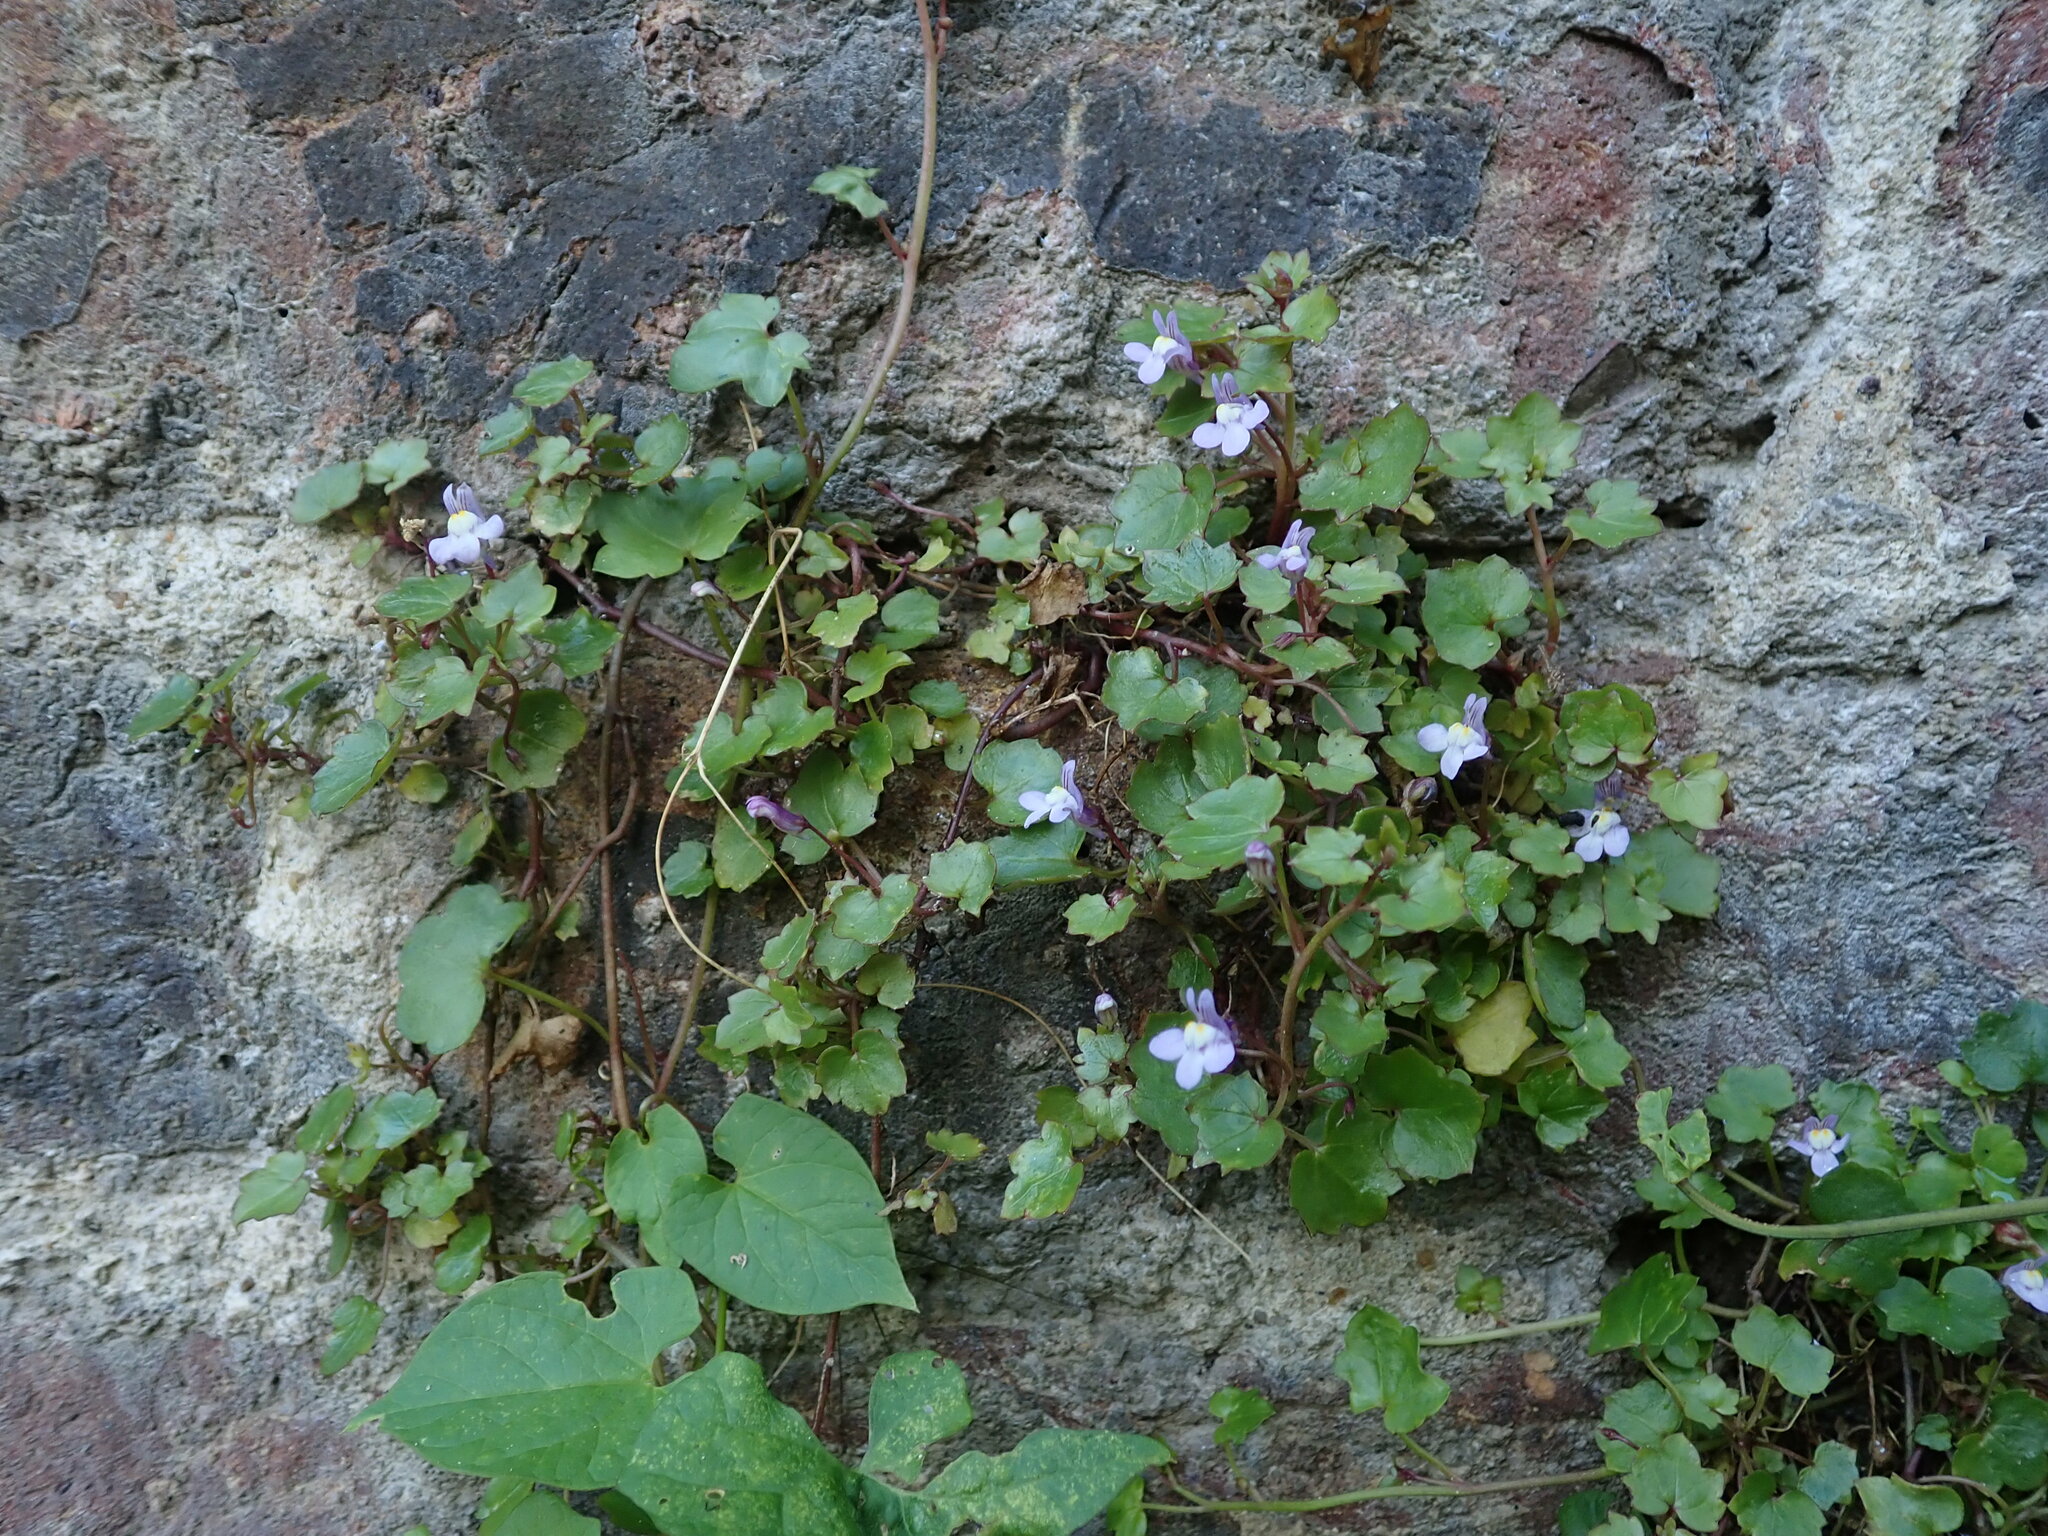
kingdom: Plantae
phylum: Tracheophyta
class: Magnoliopsida
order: Lamiales
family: Plantaginaceae
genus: Cymbalaria
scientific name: Cymbalaria muralis
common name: Ivy-leaved toadflax
